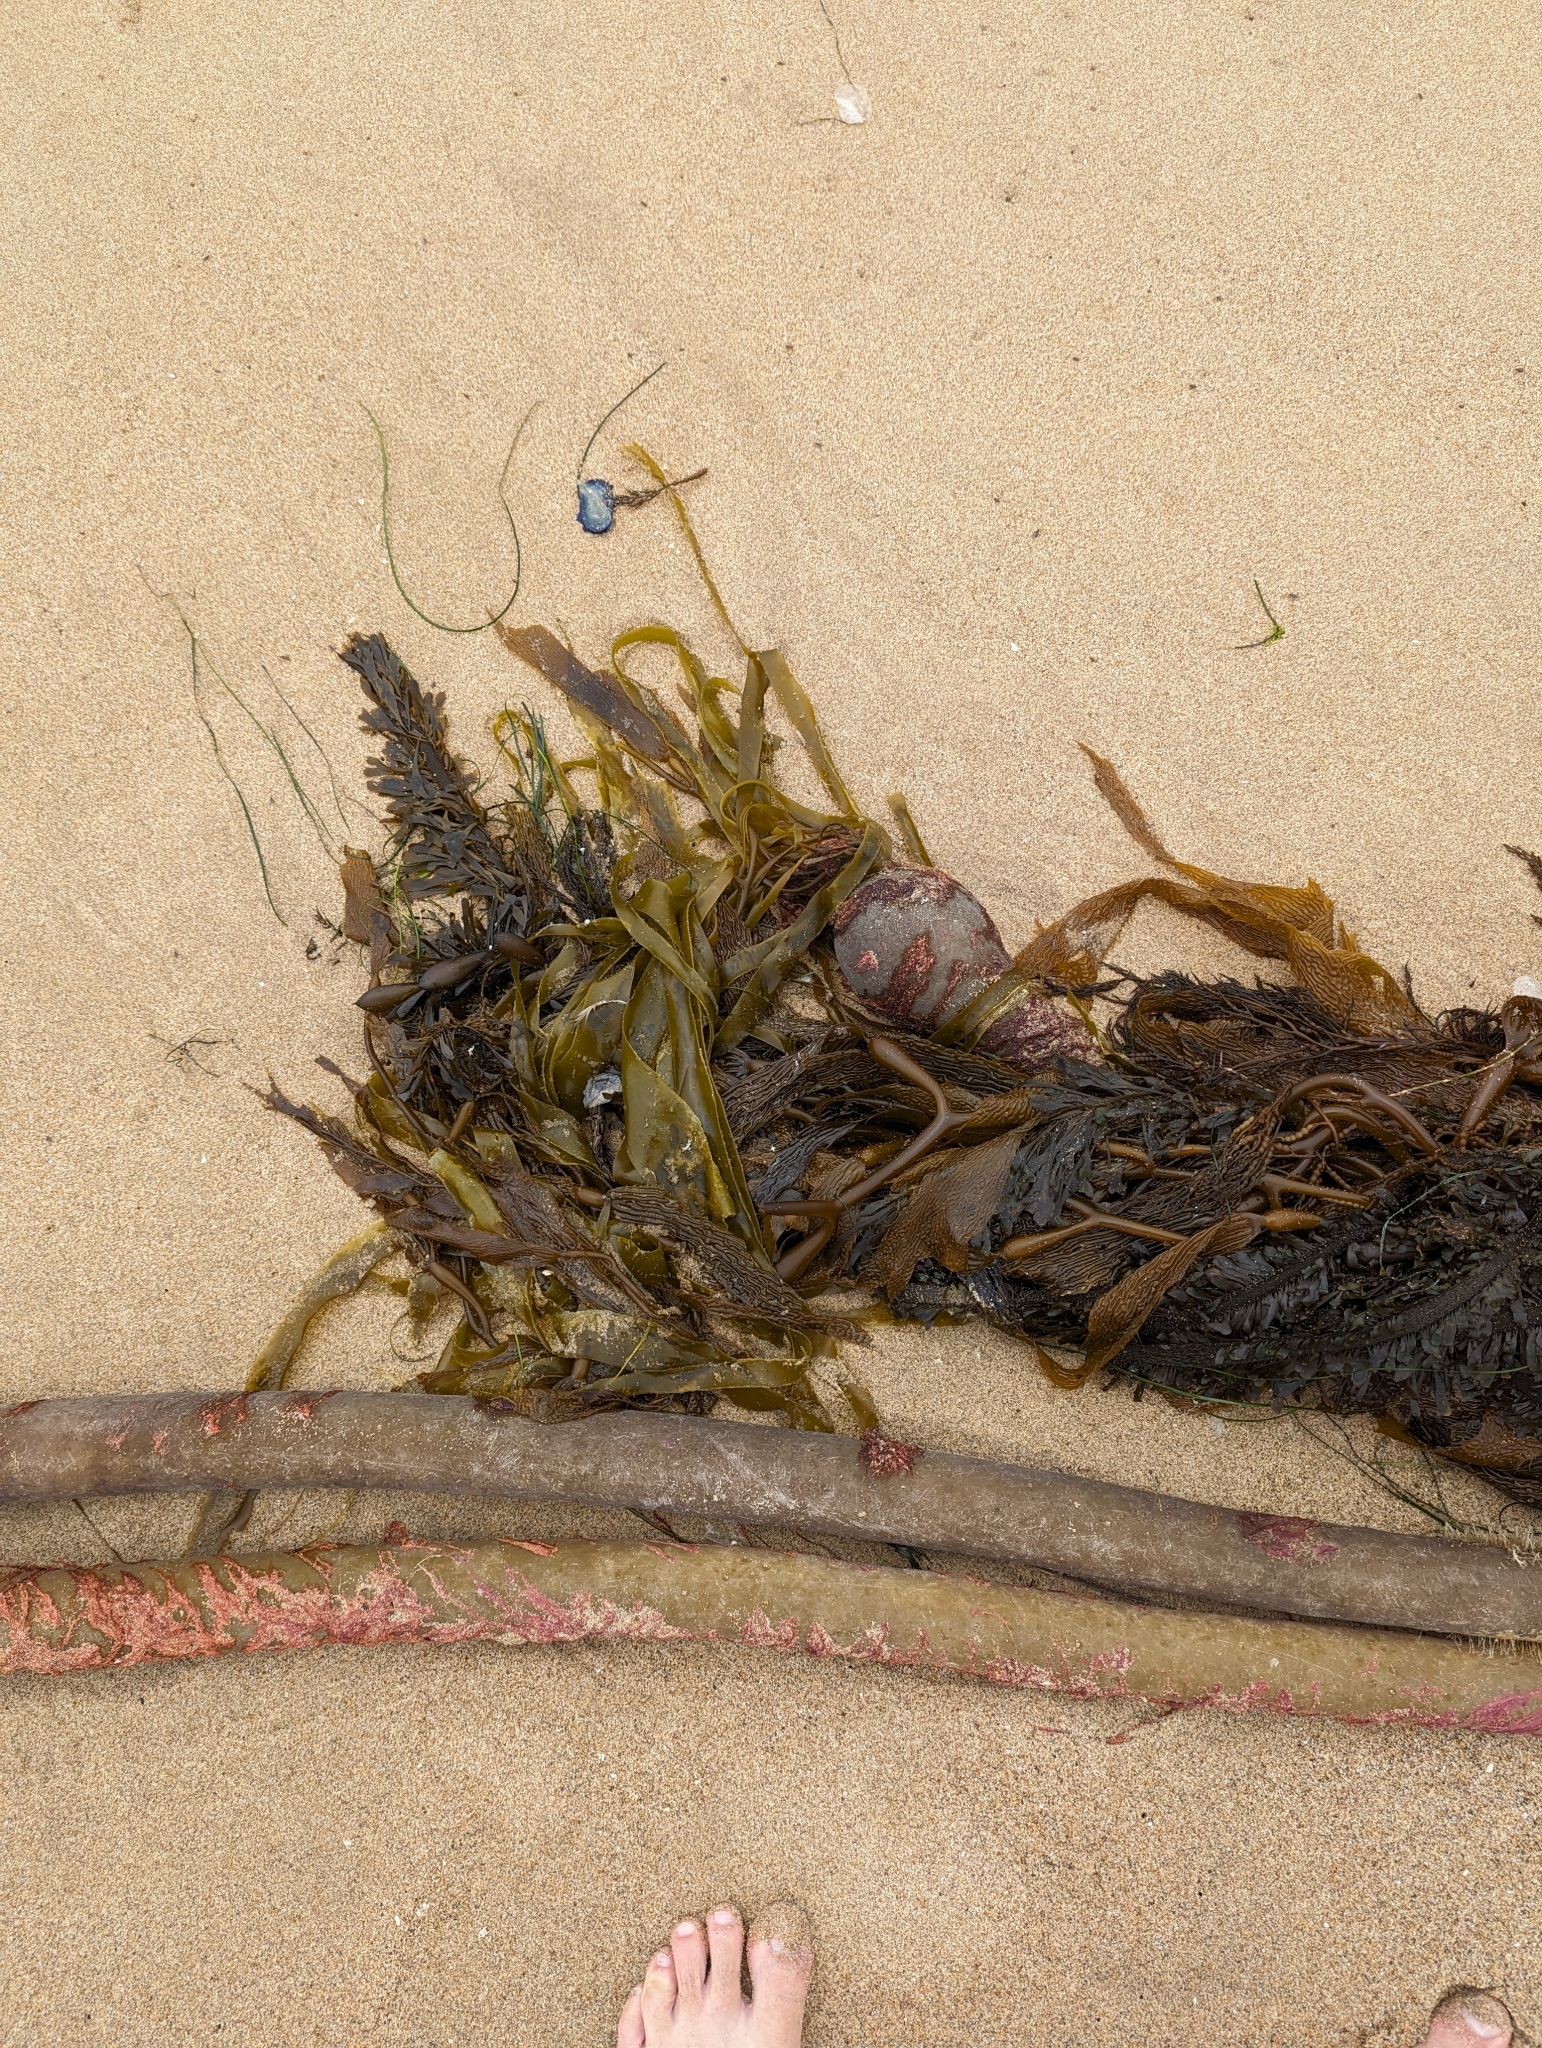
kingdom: Chromista
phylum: Ochrophyta
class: Phaeophyceae
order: Laminariales
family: Laminariaceae
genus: Nereocystis
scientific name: Nereocystis luetkeana
